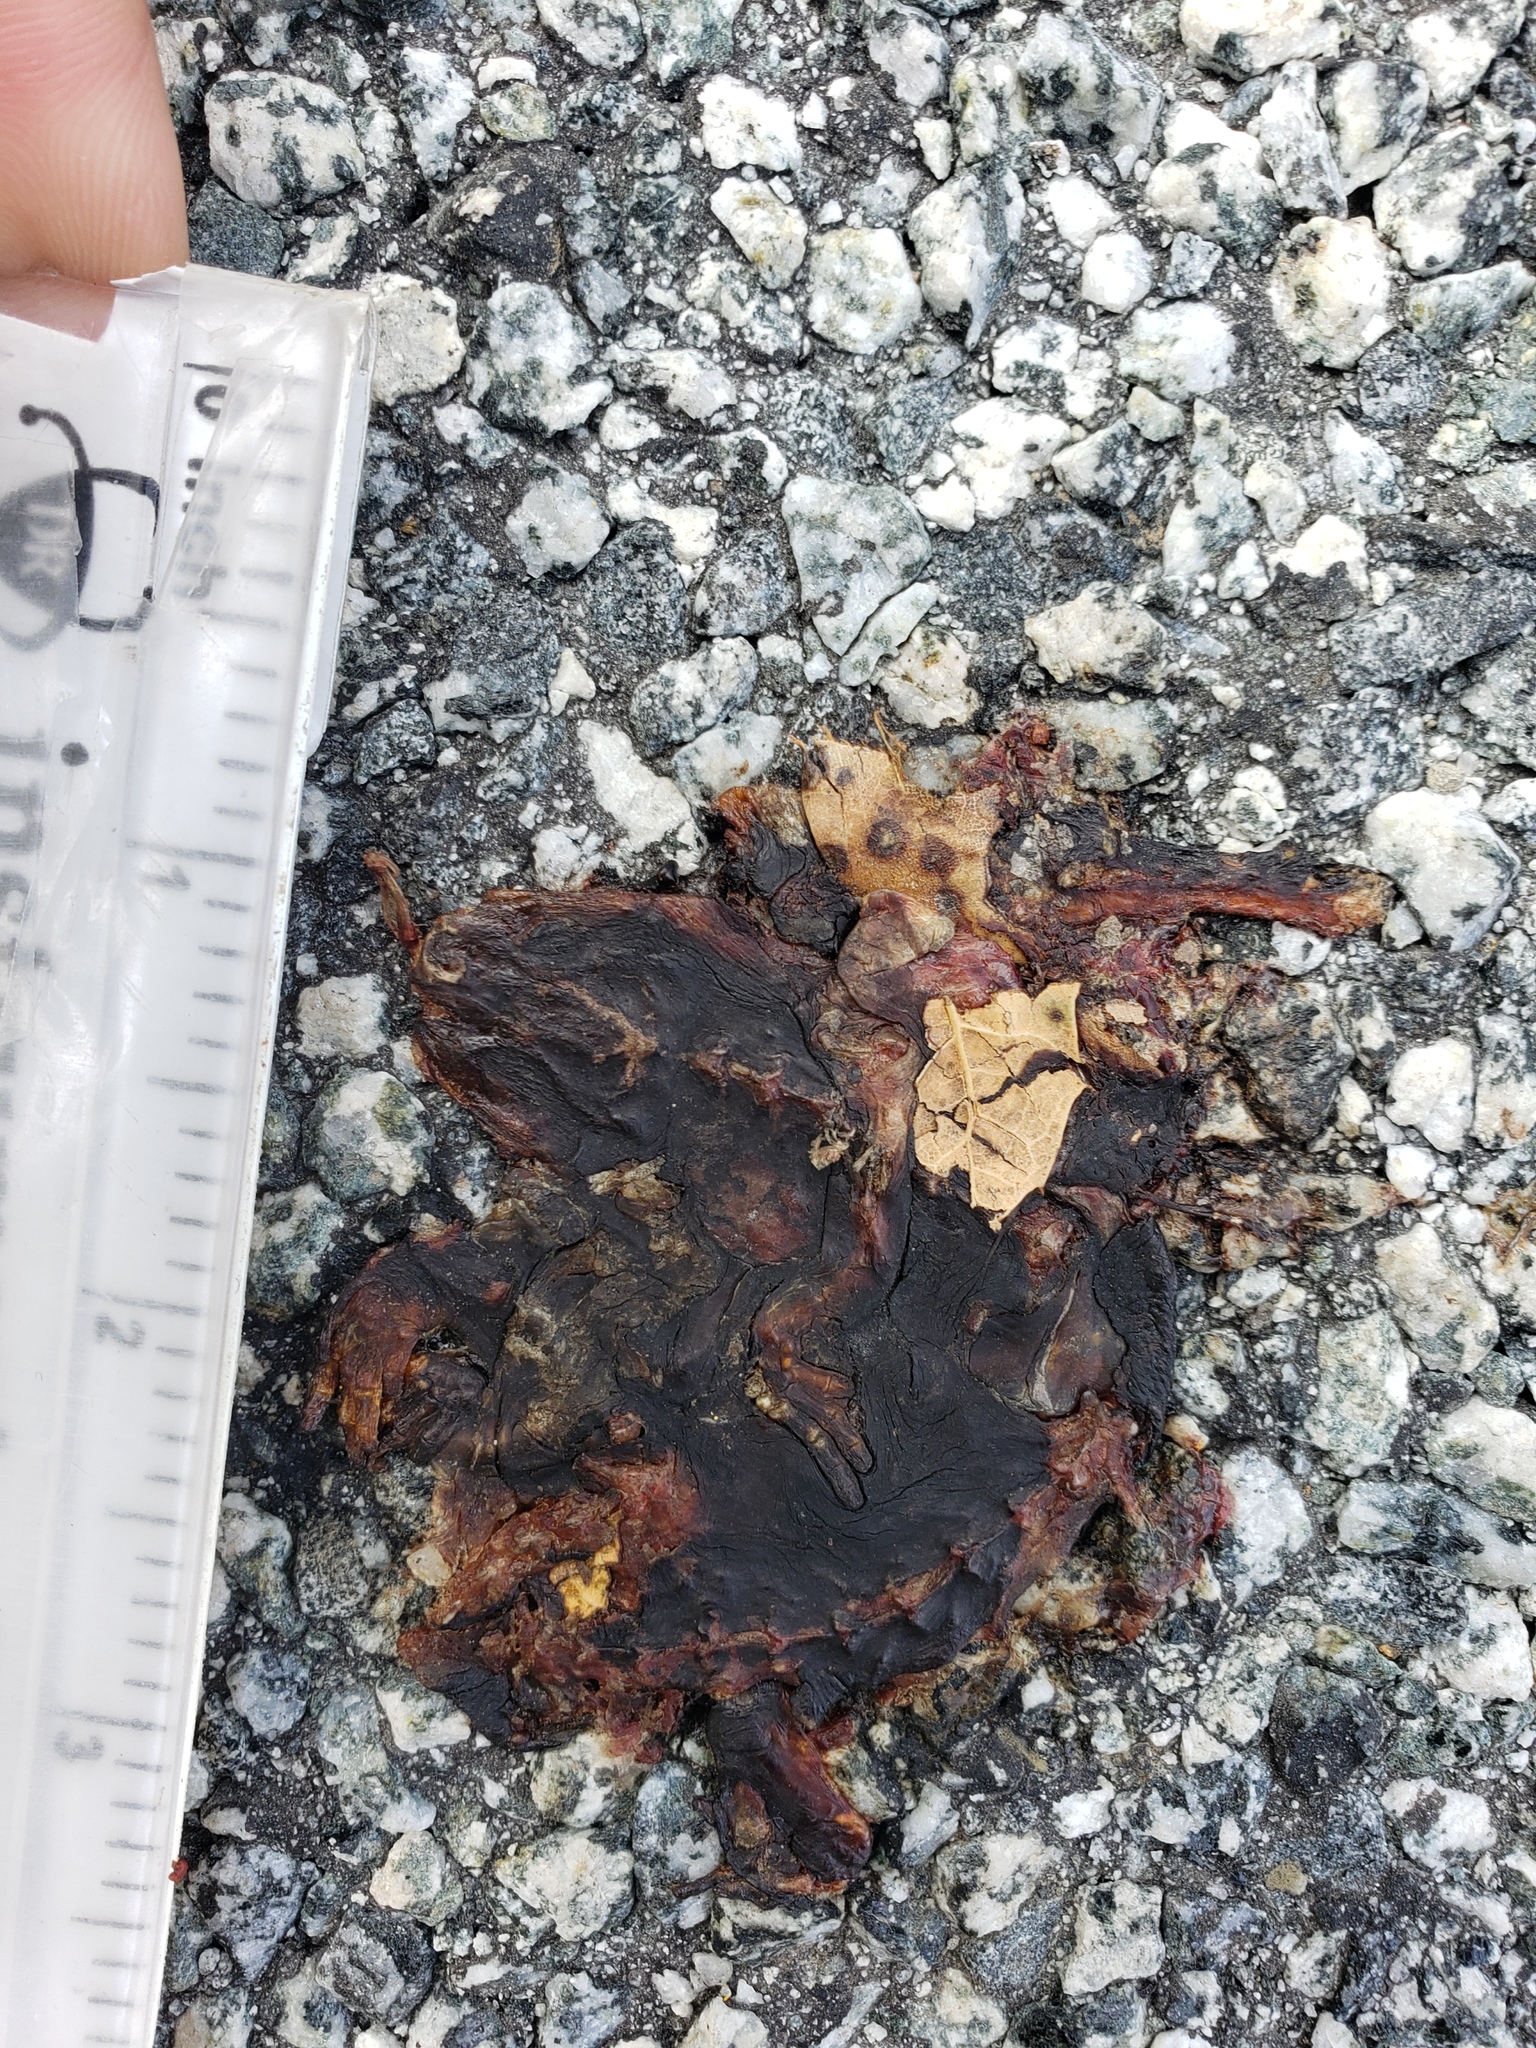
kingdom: Animalia
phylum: Chordata
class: Amphibia
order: Caudata
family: Salamandridae
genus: Taricha
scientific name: Taricha
